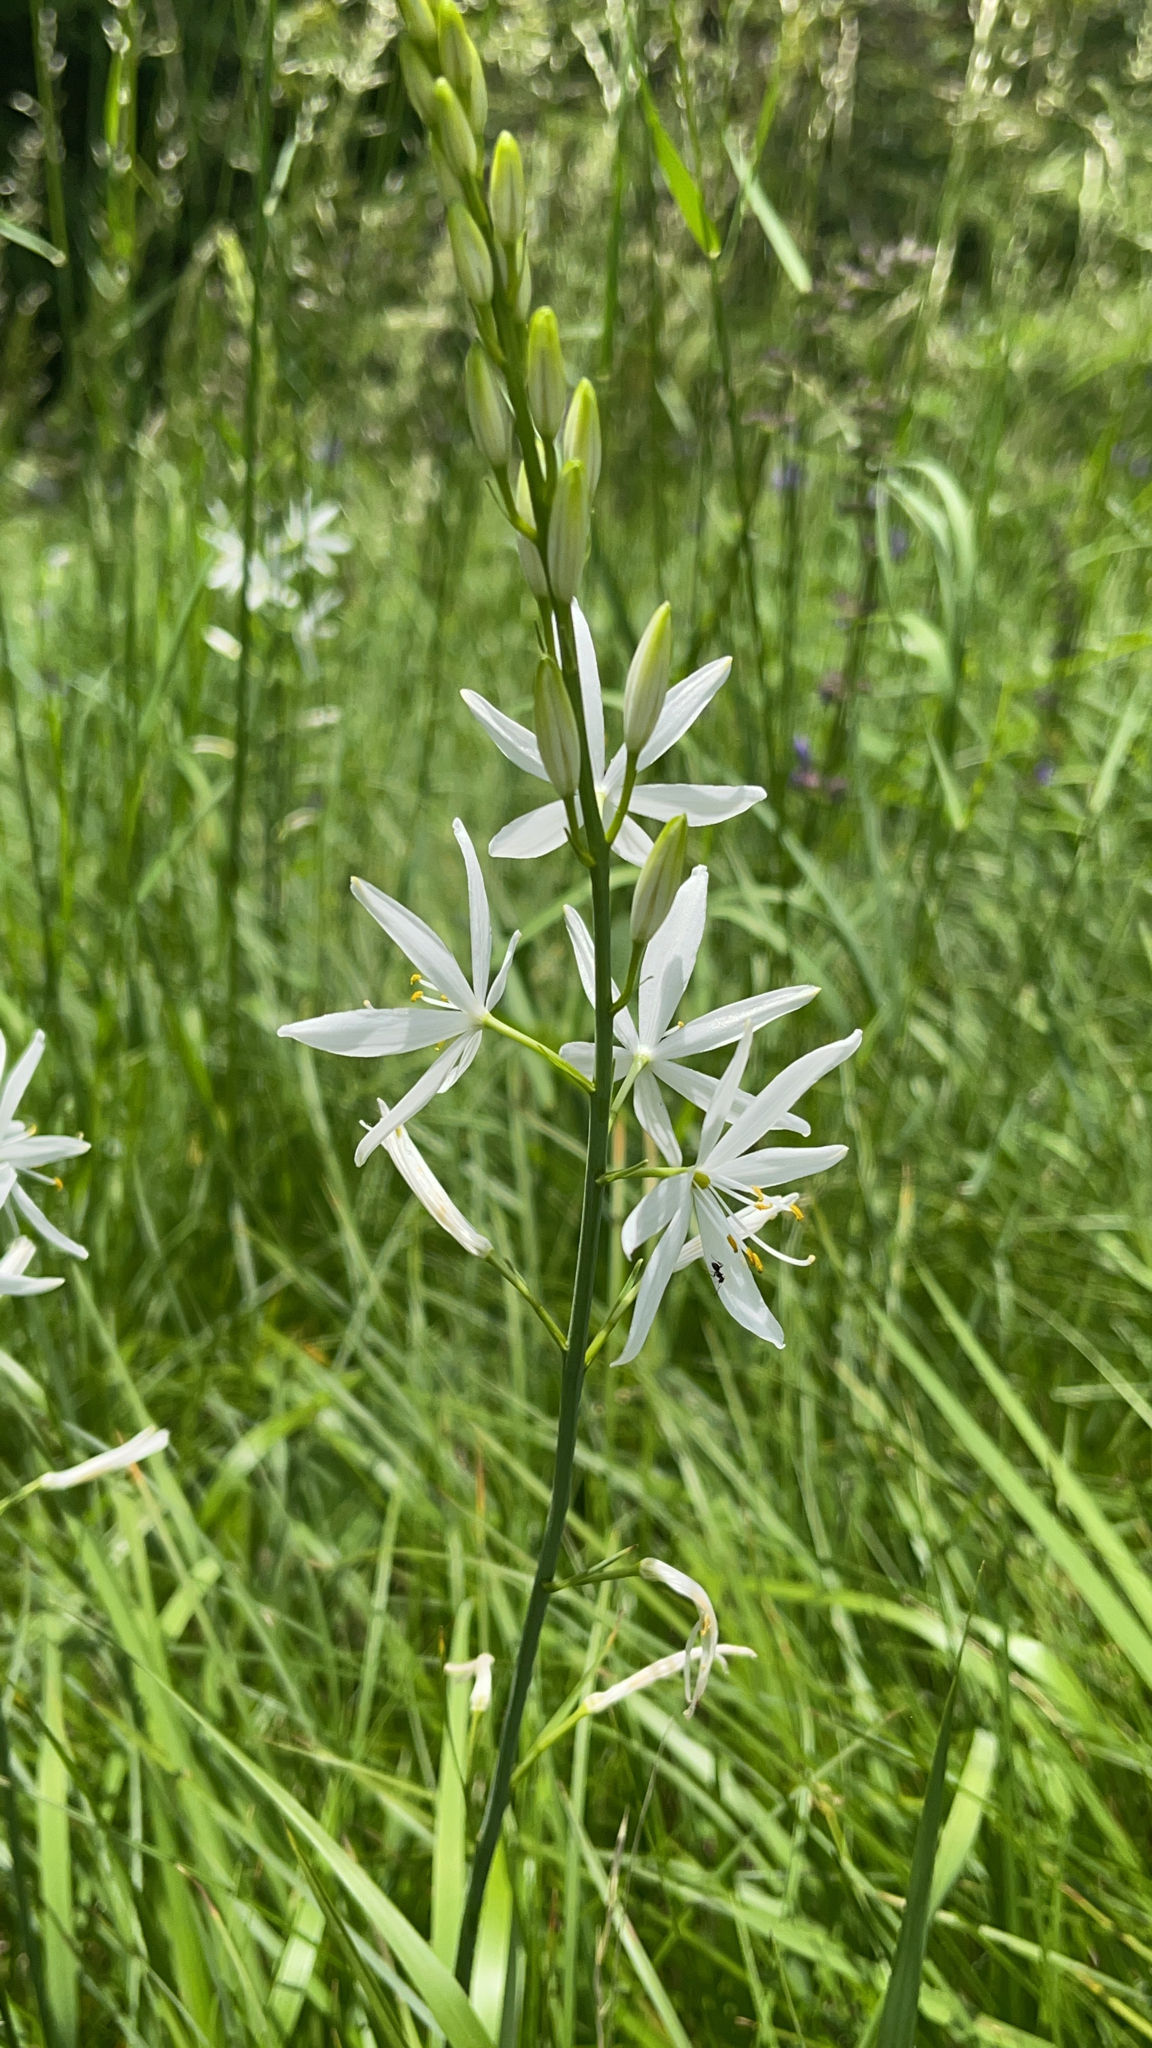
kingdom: Plantae
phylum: Tracheophyta
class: Liliopsida
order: Asparagales
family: Asparagaceae
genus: Anthericum
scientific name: Anthericum liliago
